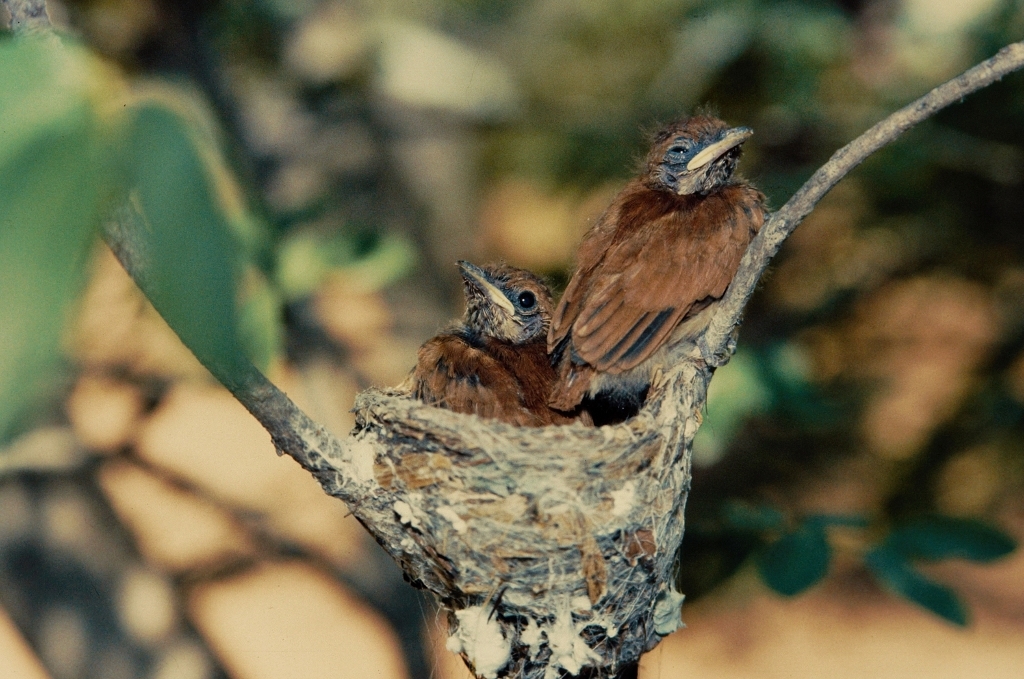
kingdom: Animalia
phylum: Chordata
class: Aves
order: Passeriformes
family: Monarchidae
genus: Terpsiphone
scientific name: Terpsiphone viridis
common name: African paradise flycatcher
